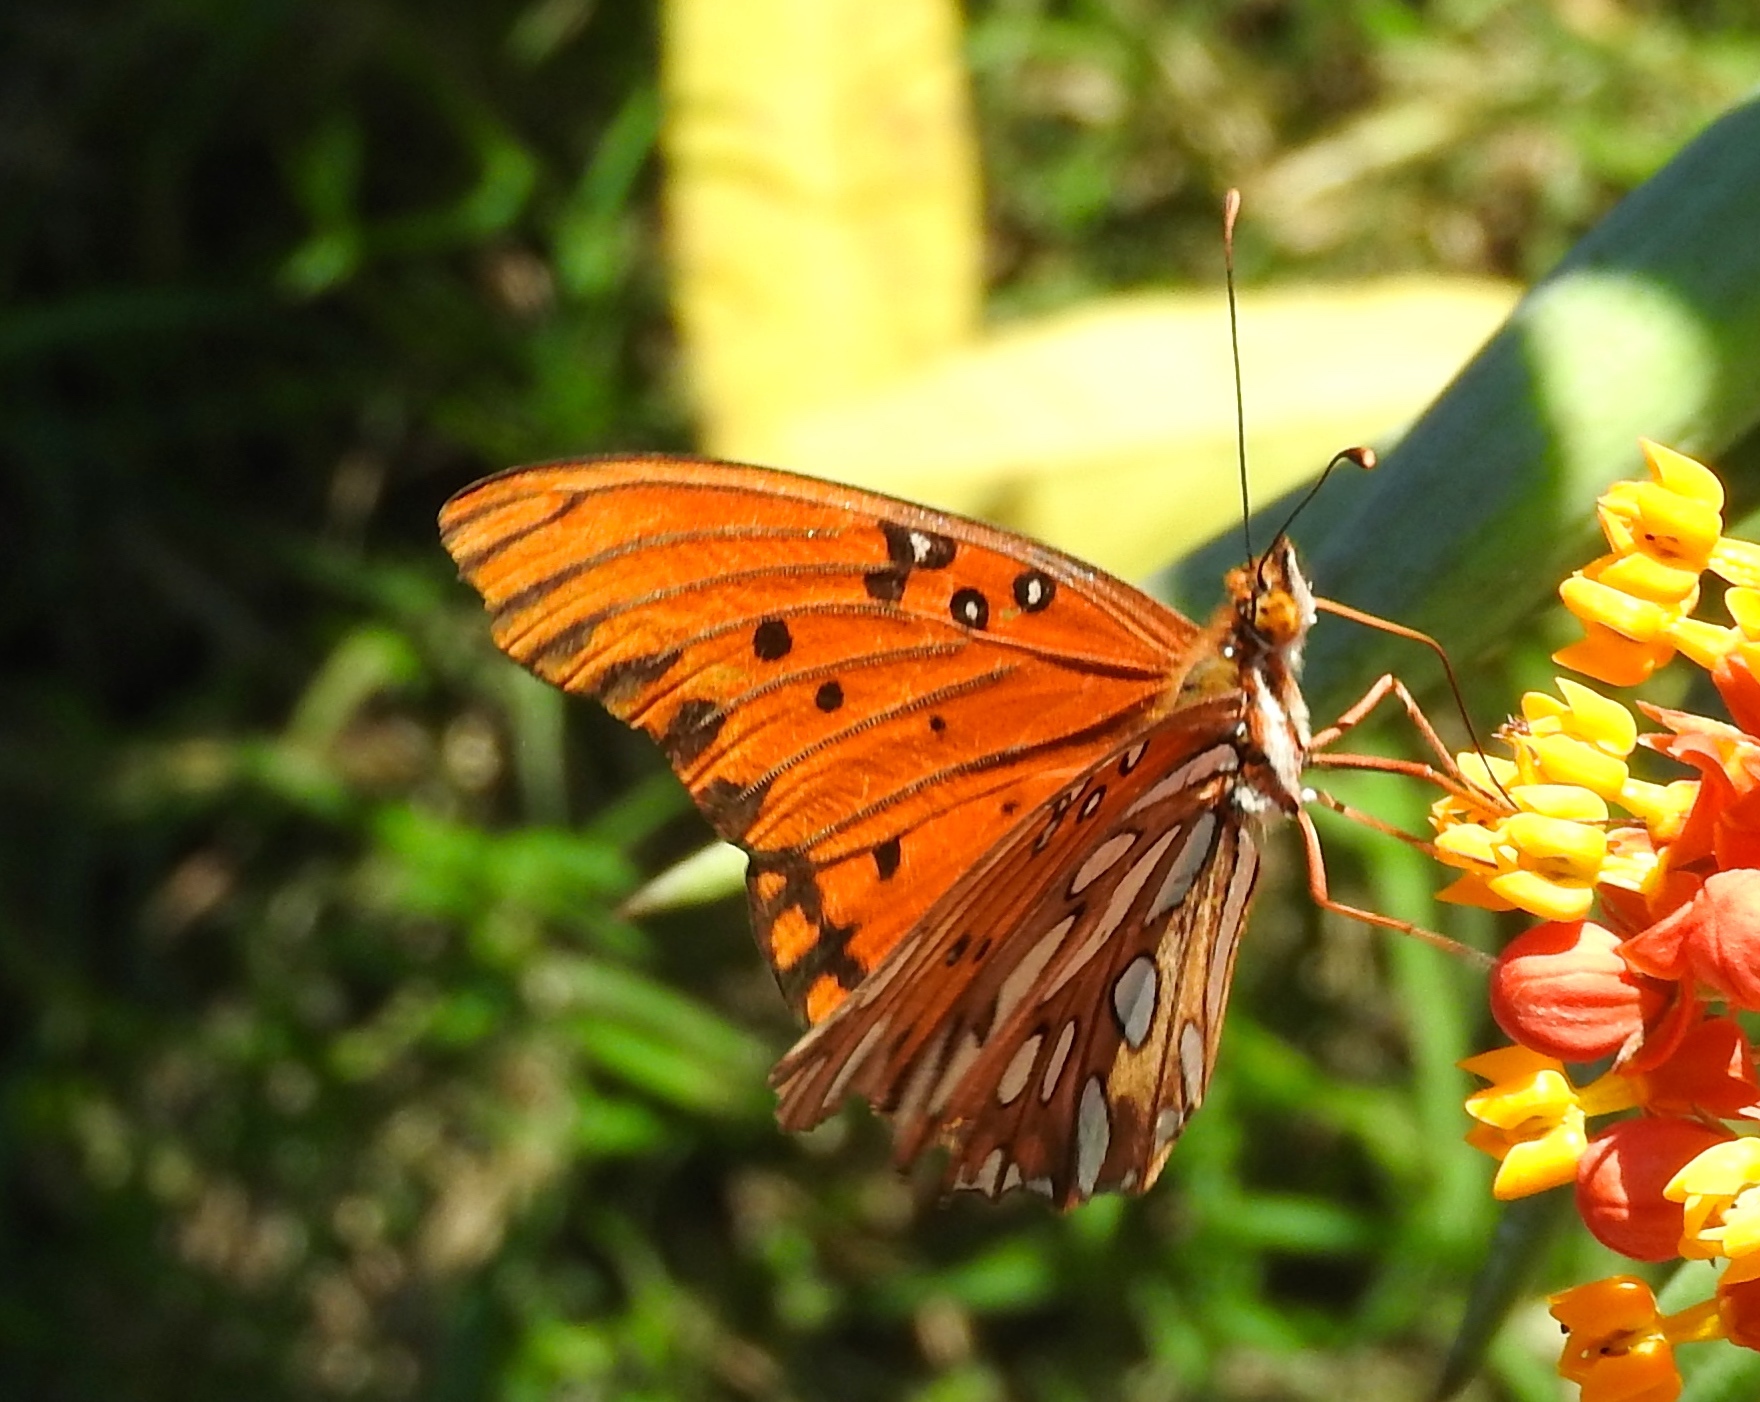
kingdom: Animalia
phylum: Arthropoda
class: Insecta
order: Lepidoptera
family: Nymphalidae
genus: Dione
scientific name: Dione vanillae
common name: Gulf fritillary
